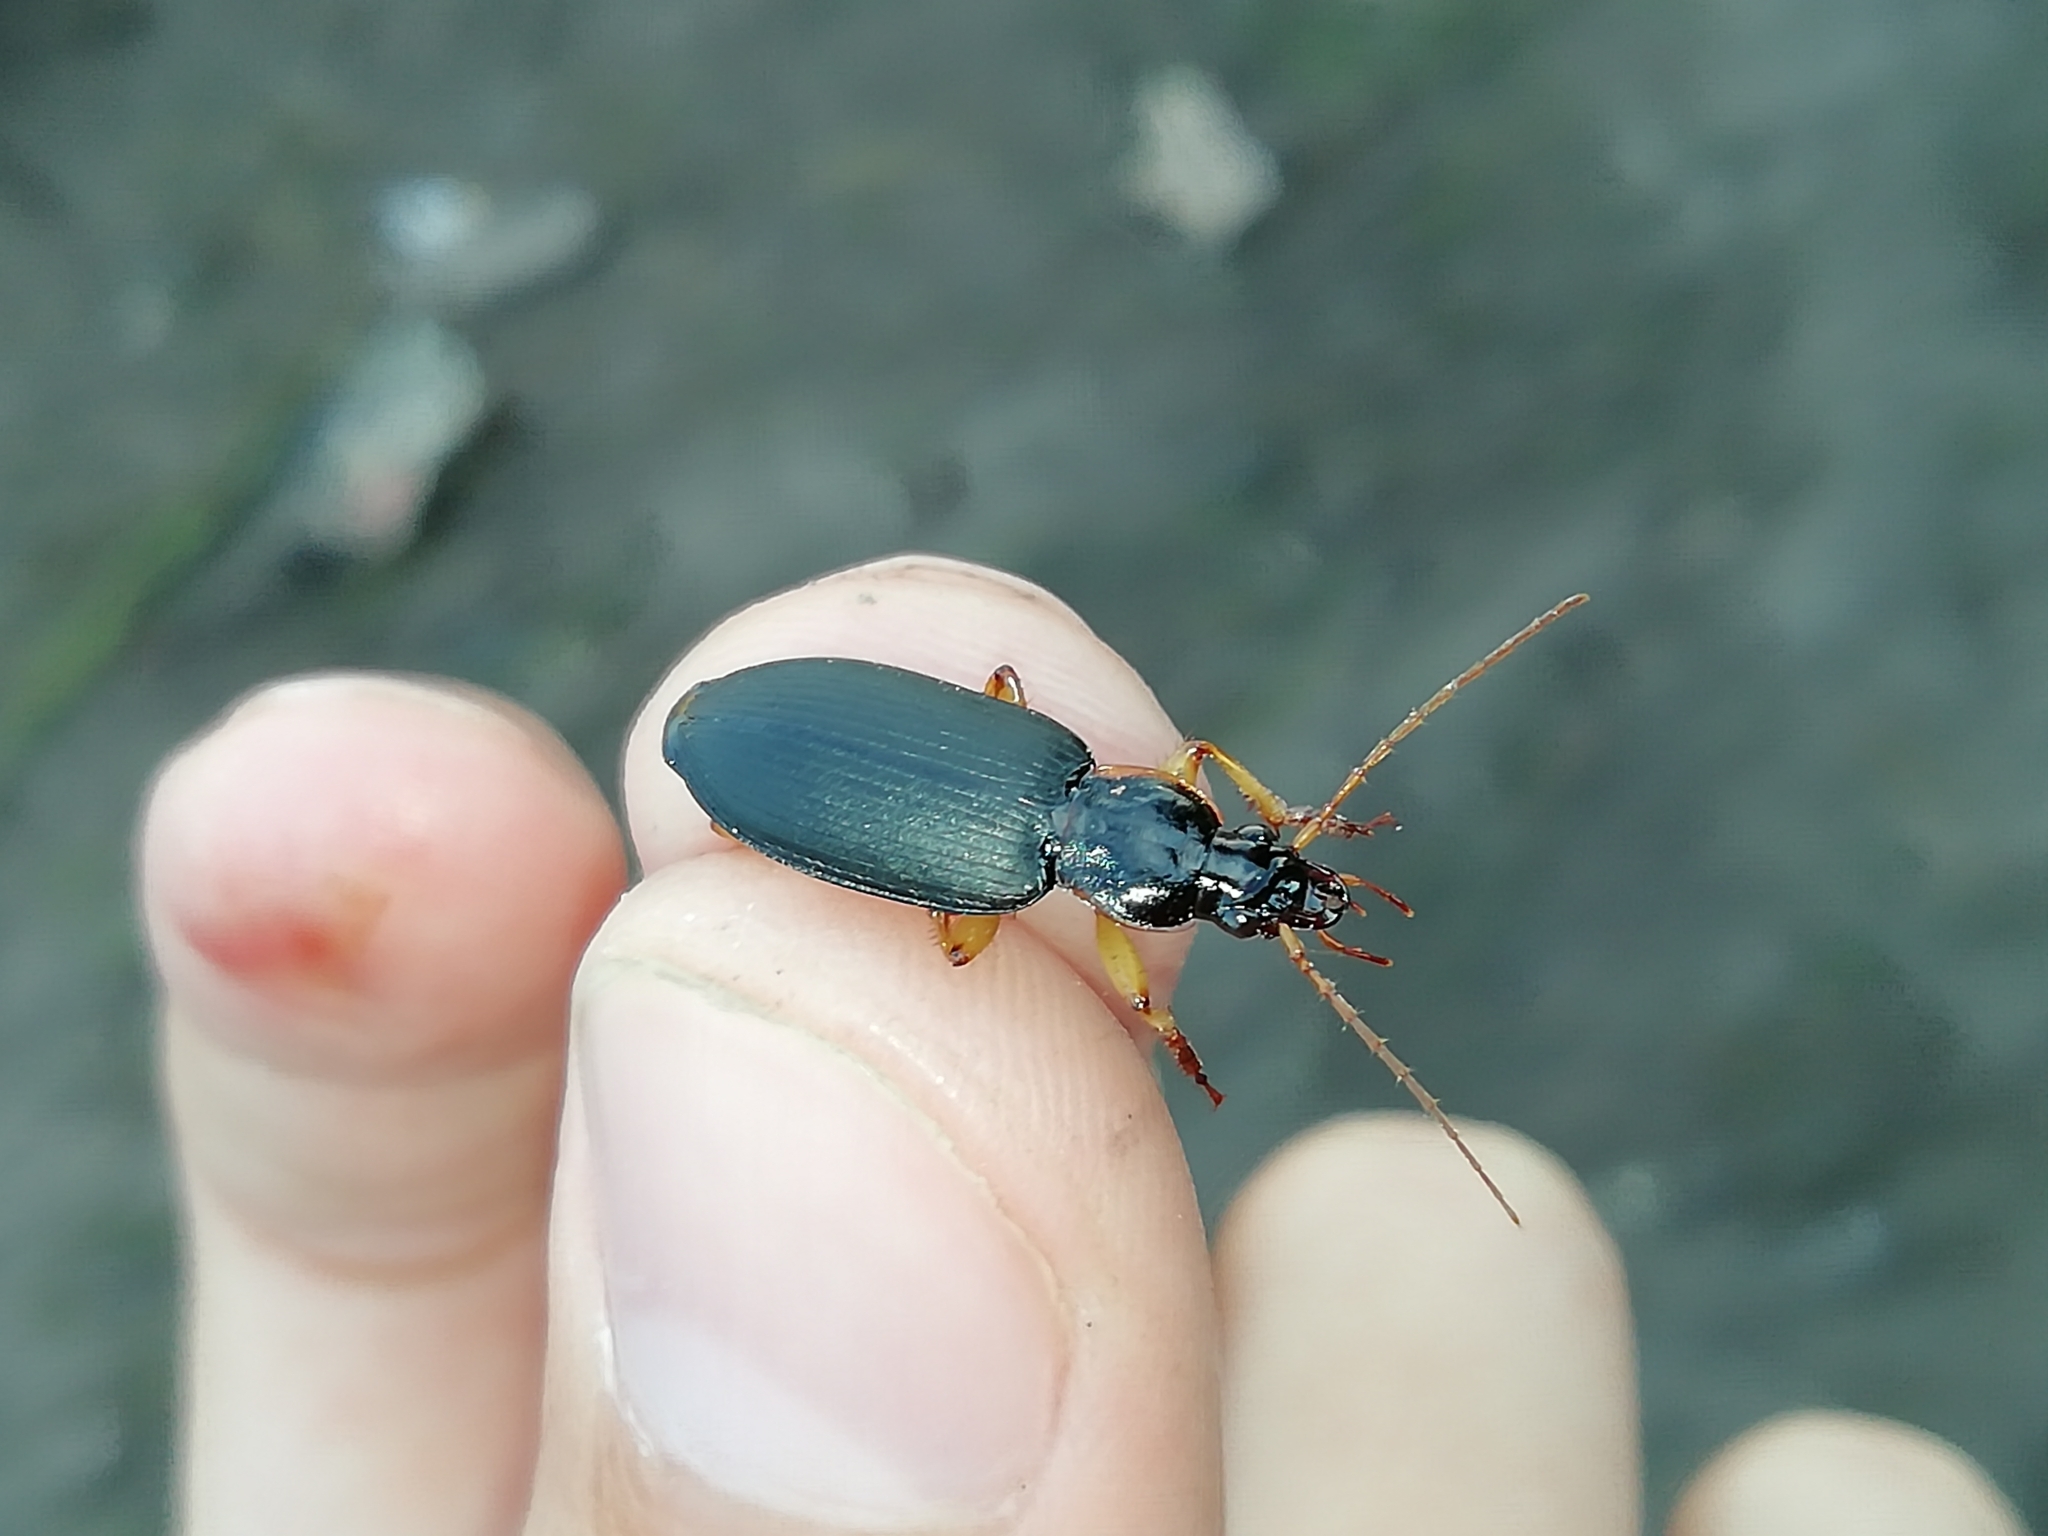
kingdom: Animalia
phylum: Arthropoda
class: Insecta
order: Coleoptera
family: Carabidae
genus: Dolichus
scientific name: Dolichus halensis
